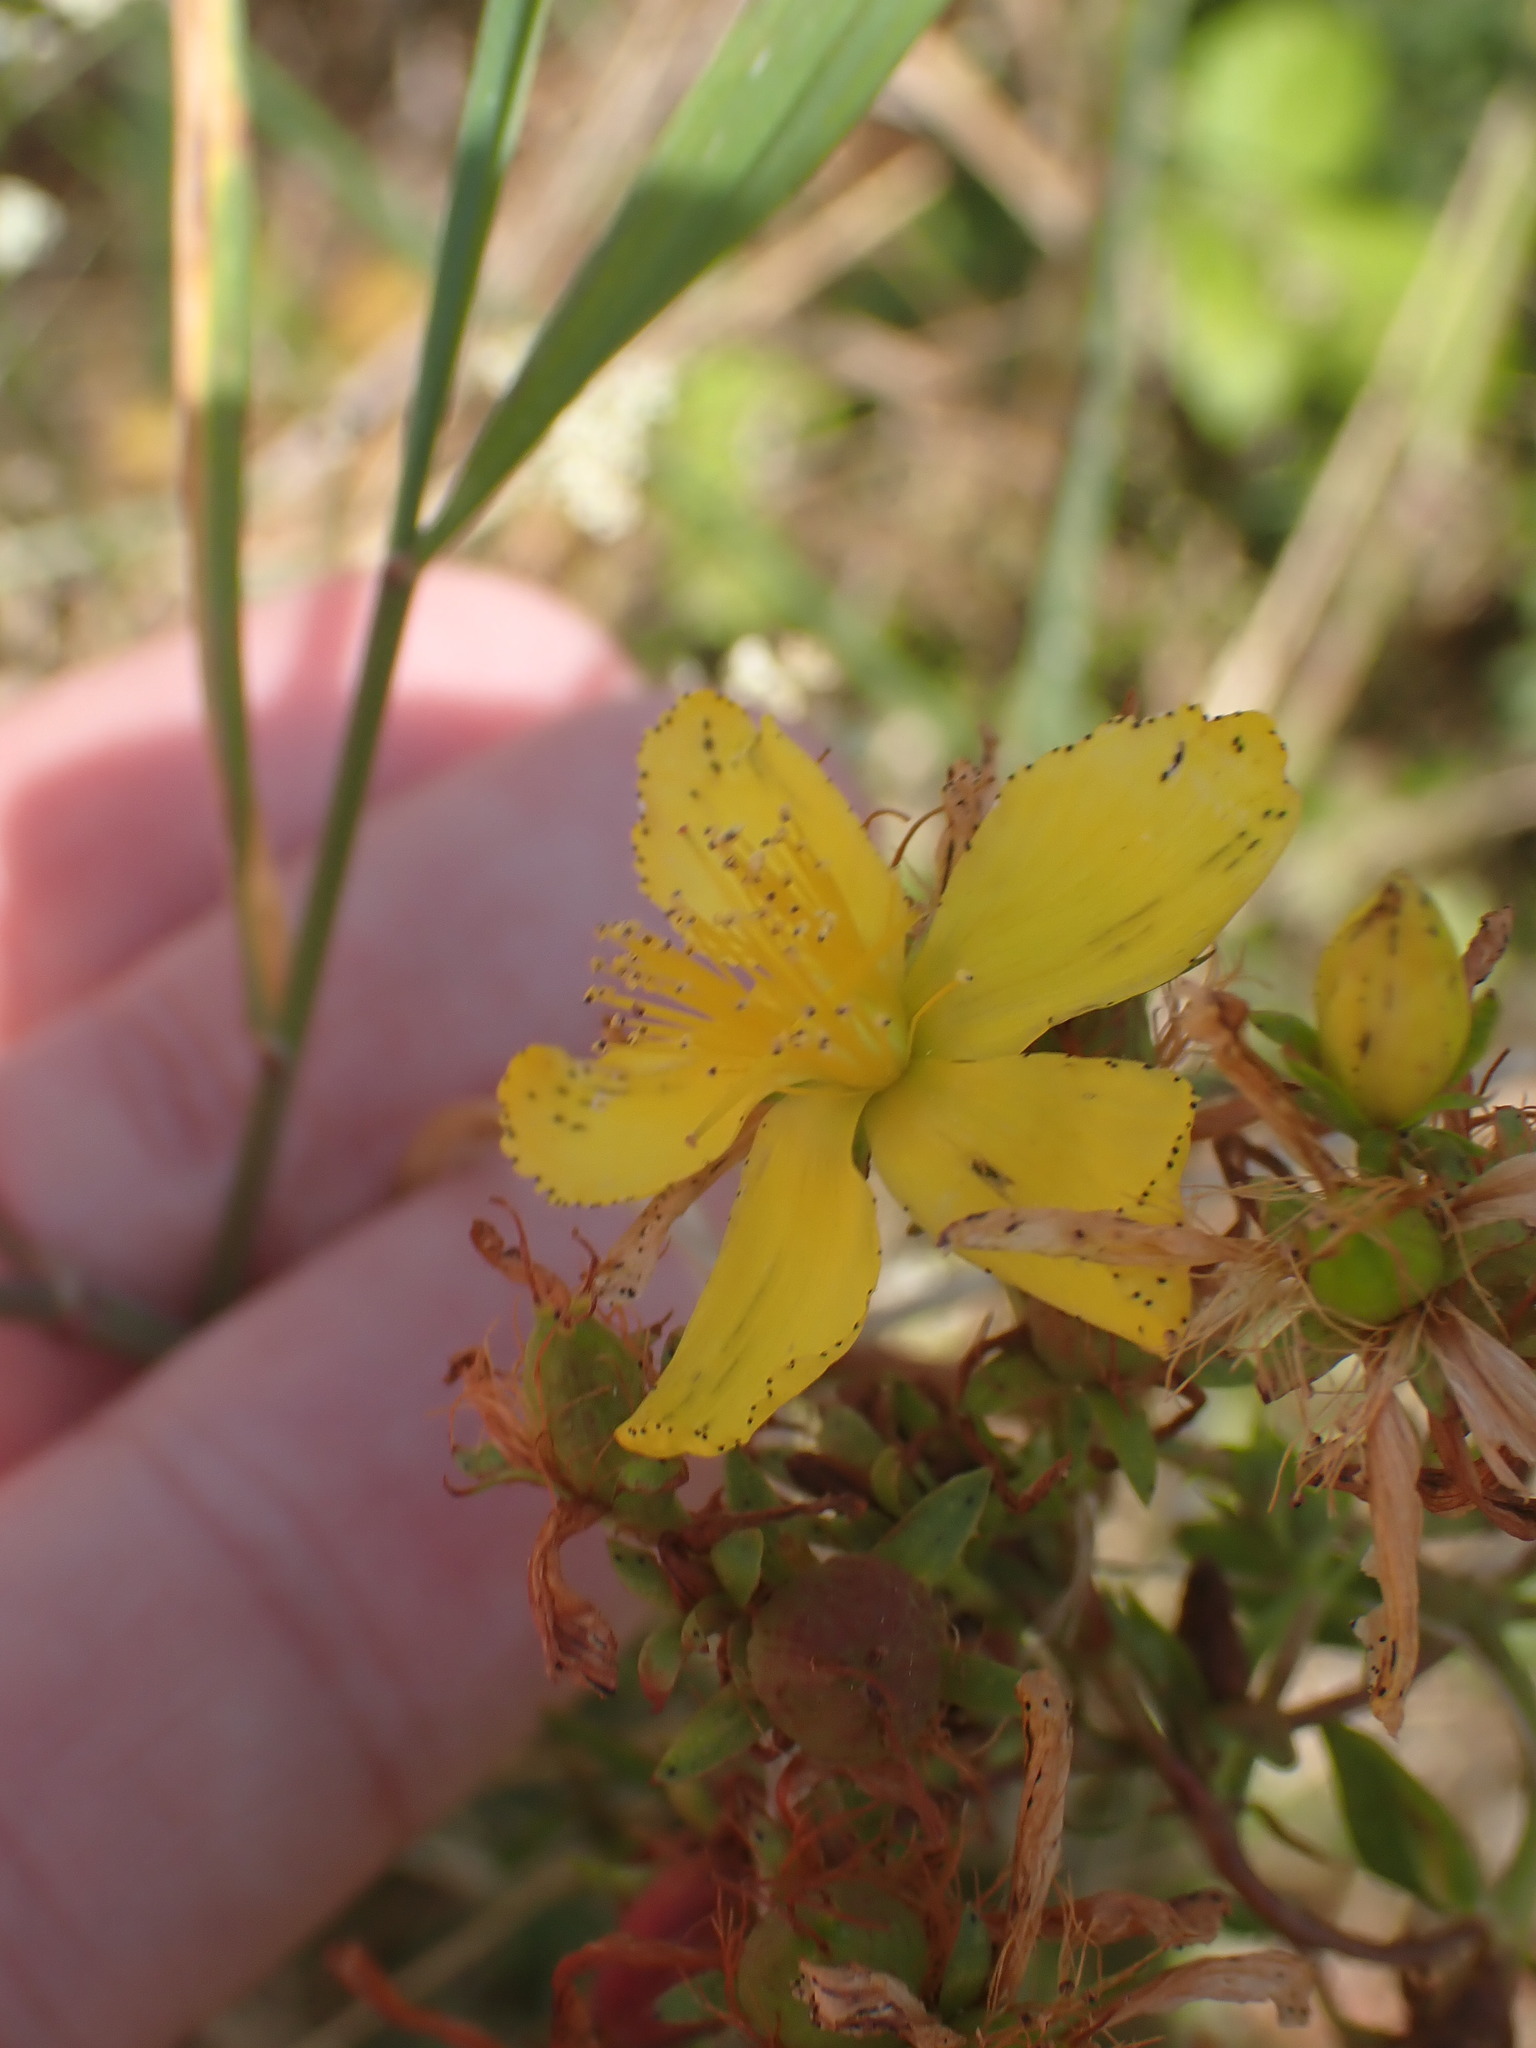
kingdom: Plantae
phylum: Tracheophyta
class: Magnoliopsida
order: Malpighiales
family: Hypericaceae
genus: Hypericum
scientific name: Hypericum perforatum
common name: Common st. johnswort
